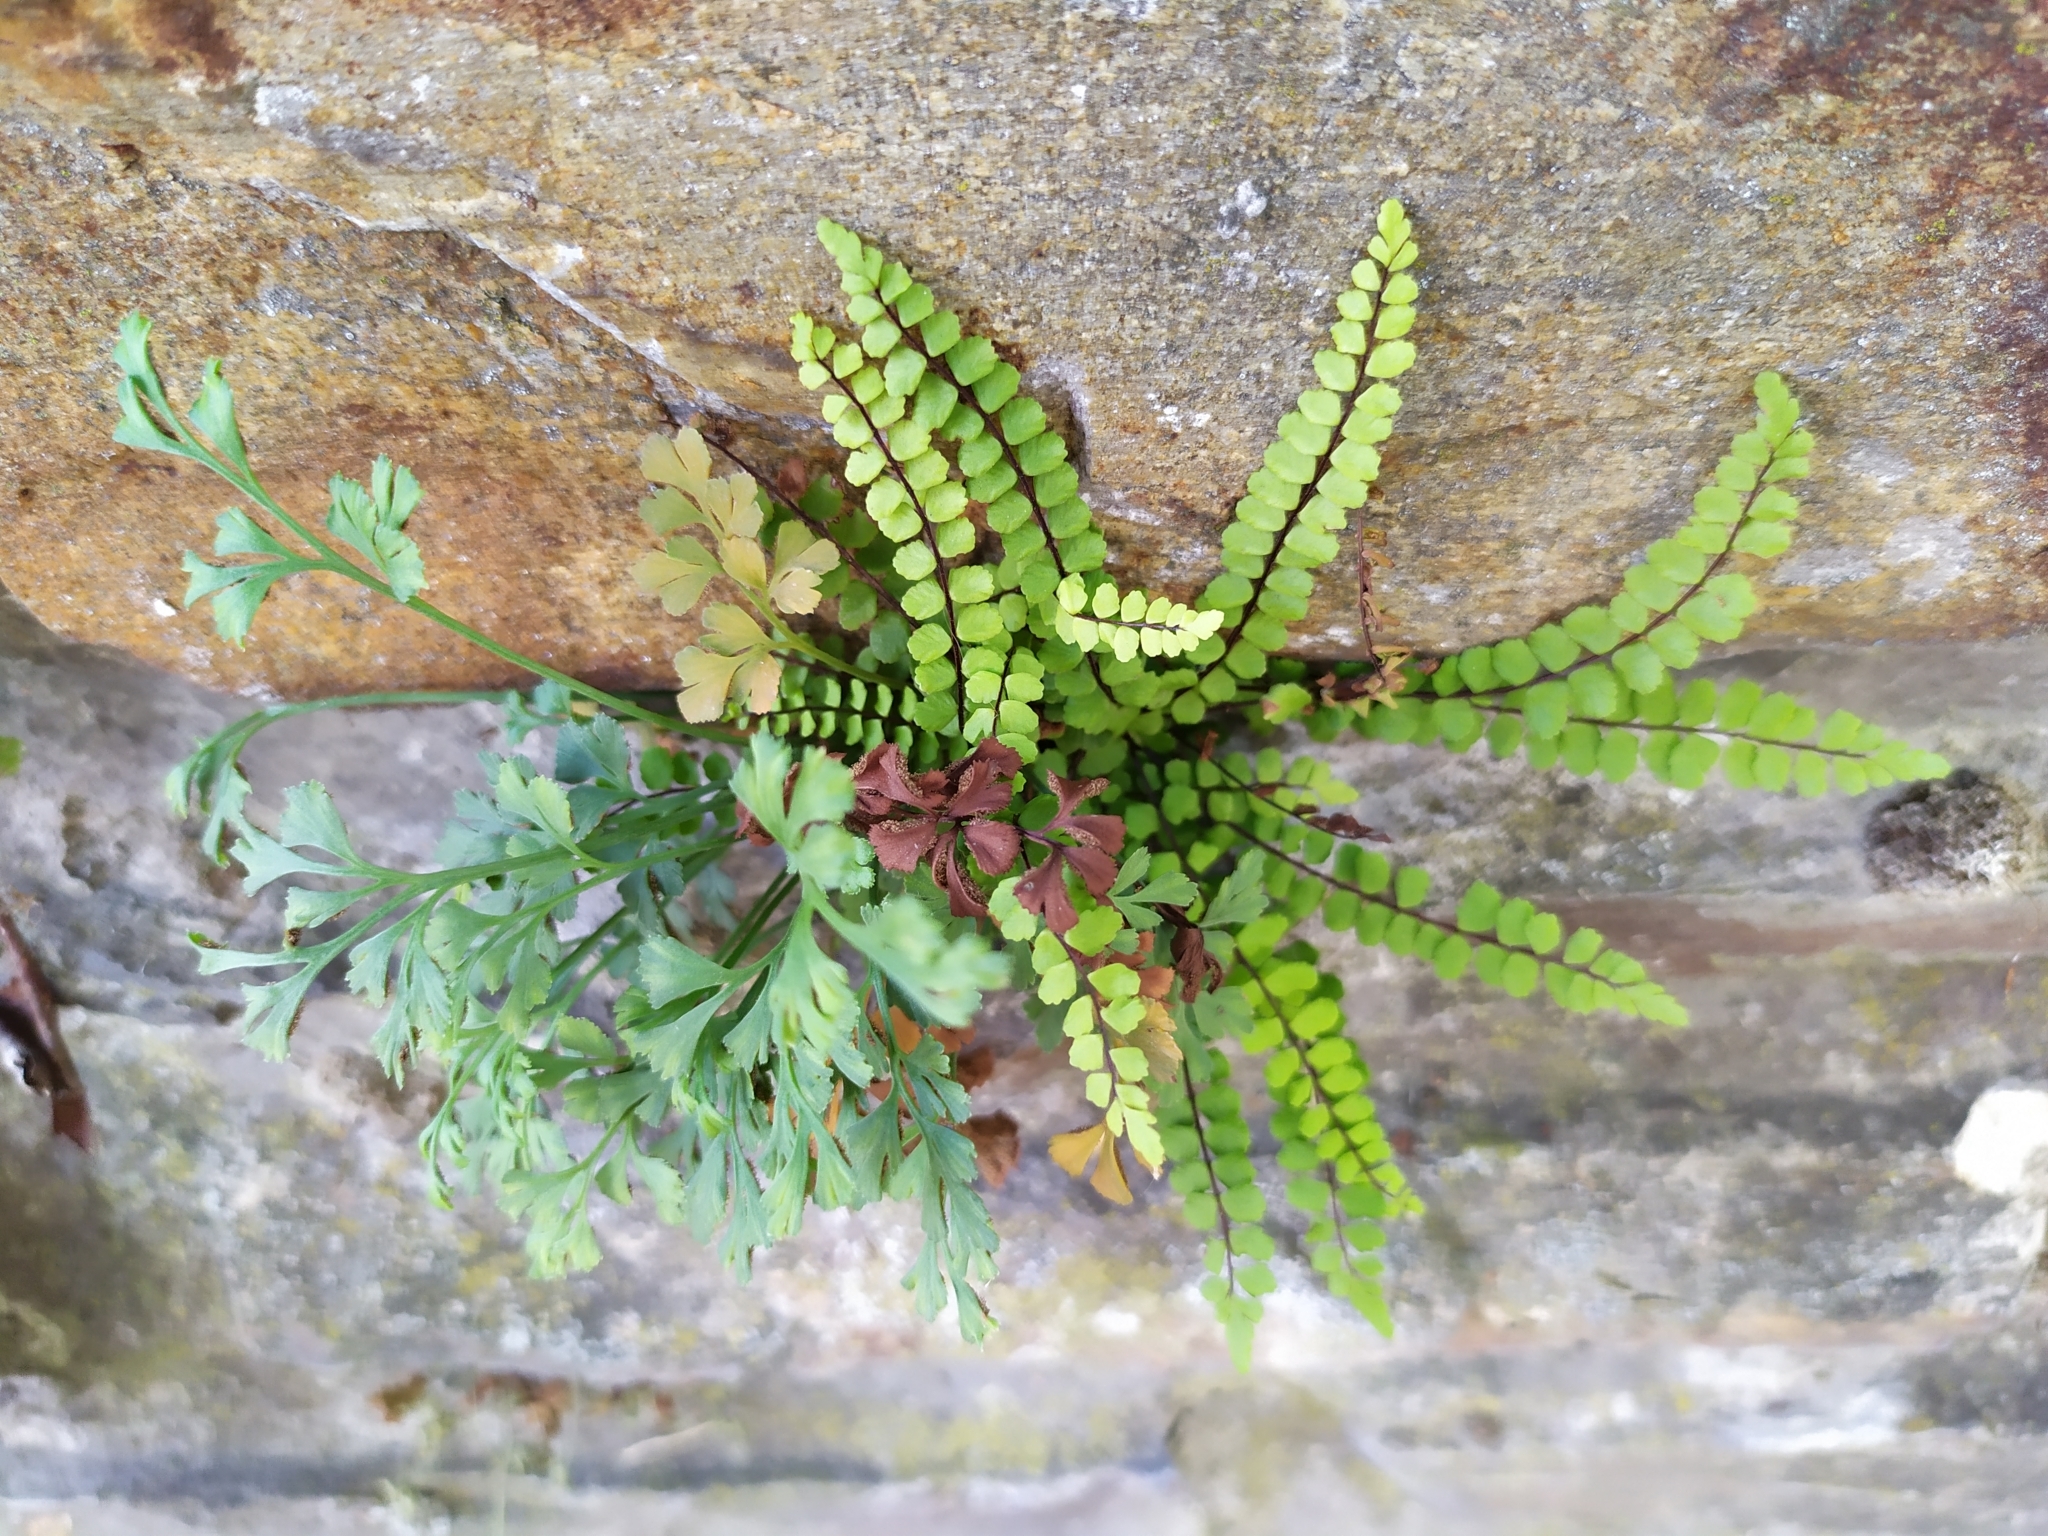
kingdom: Plantae
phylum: Tracheophyta
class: Polypodiopsida
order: Polypodiales
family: Aspleniaceae
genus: Asplenium
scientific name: Asplenium trichomanes
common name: Maidenhair spleenwort
